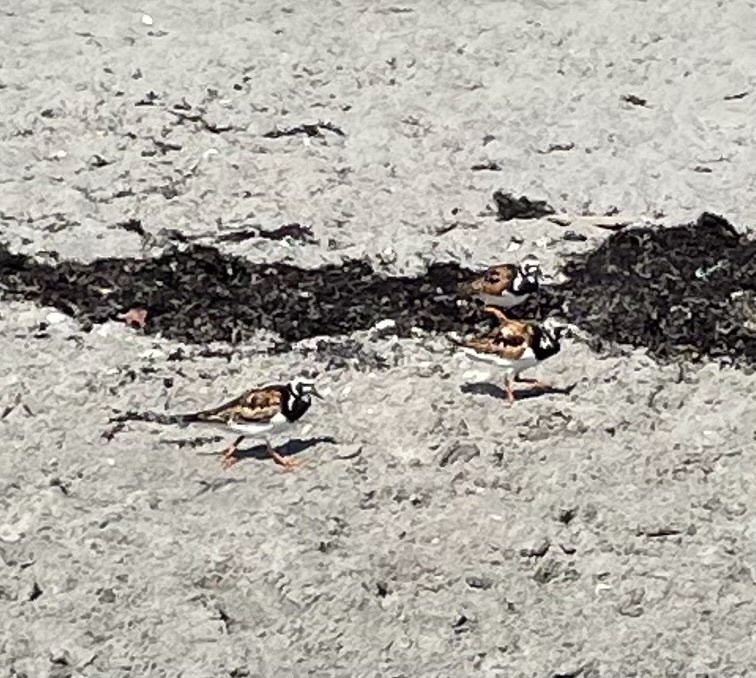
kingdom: Animalia
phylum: Chordata
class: Aves
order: Charadriiformes
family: Scolopacidae
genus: Arenaria
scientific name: Arenaria interpres
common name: Ruddy turnstone
